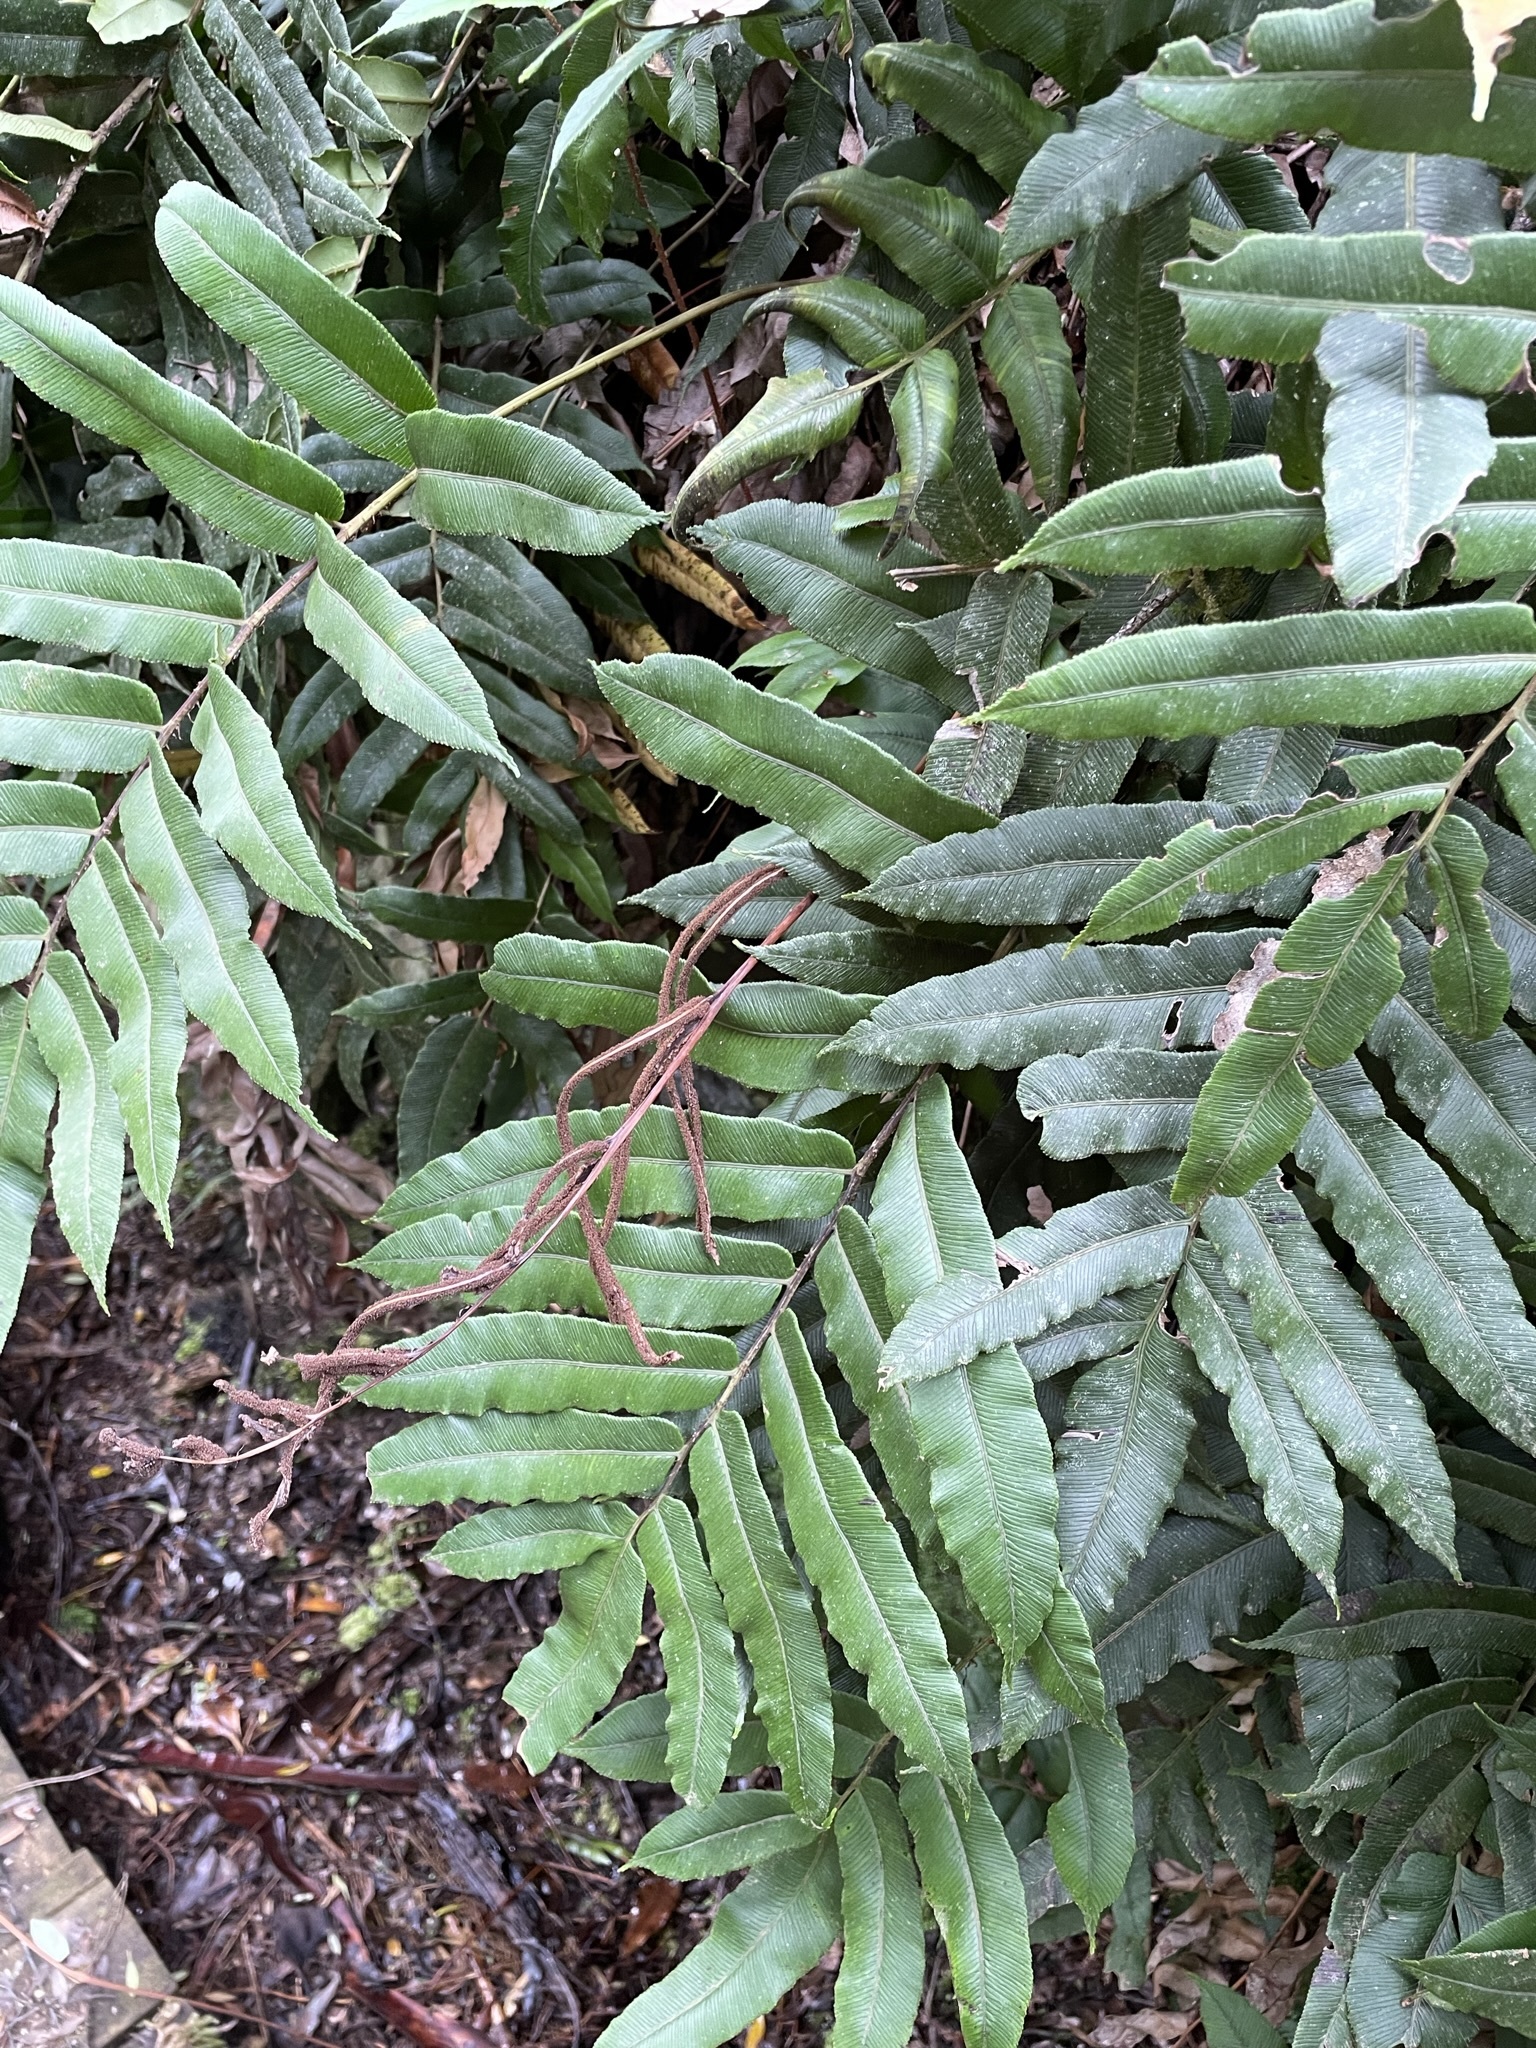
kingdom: Plantae
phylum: Tracheophyta
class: Polypodiopsida
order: Polypodiales
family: Blechnaceae
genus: Parablechnum
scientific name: Parablechnum wattsii
